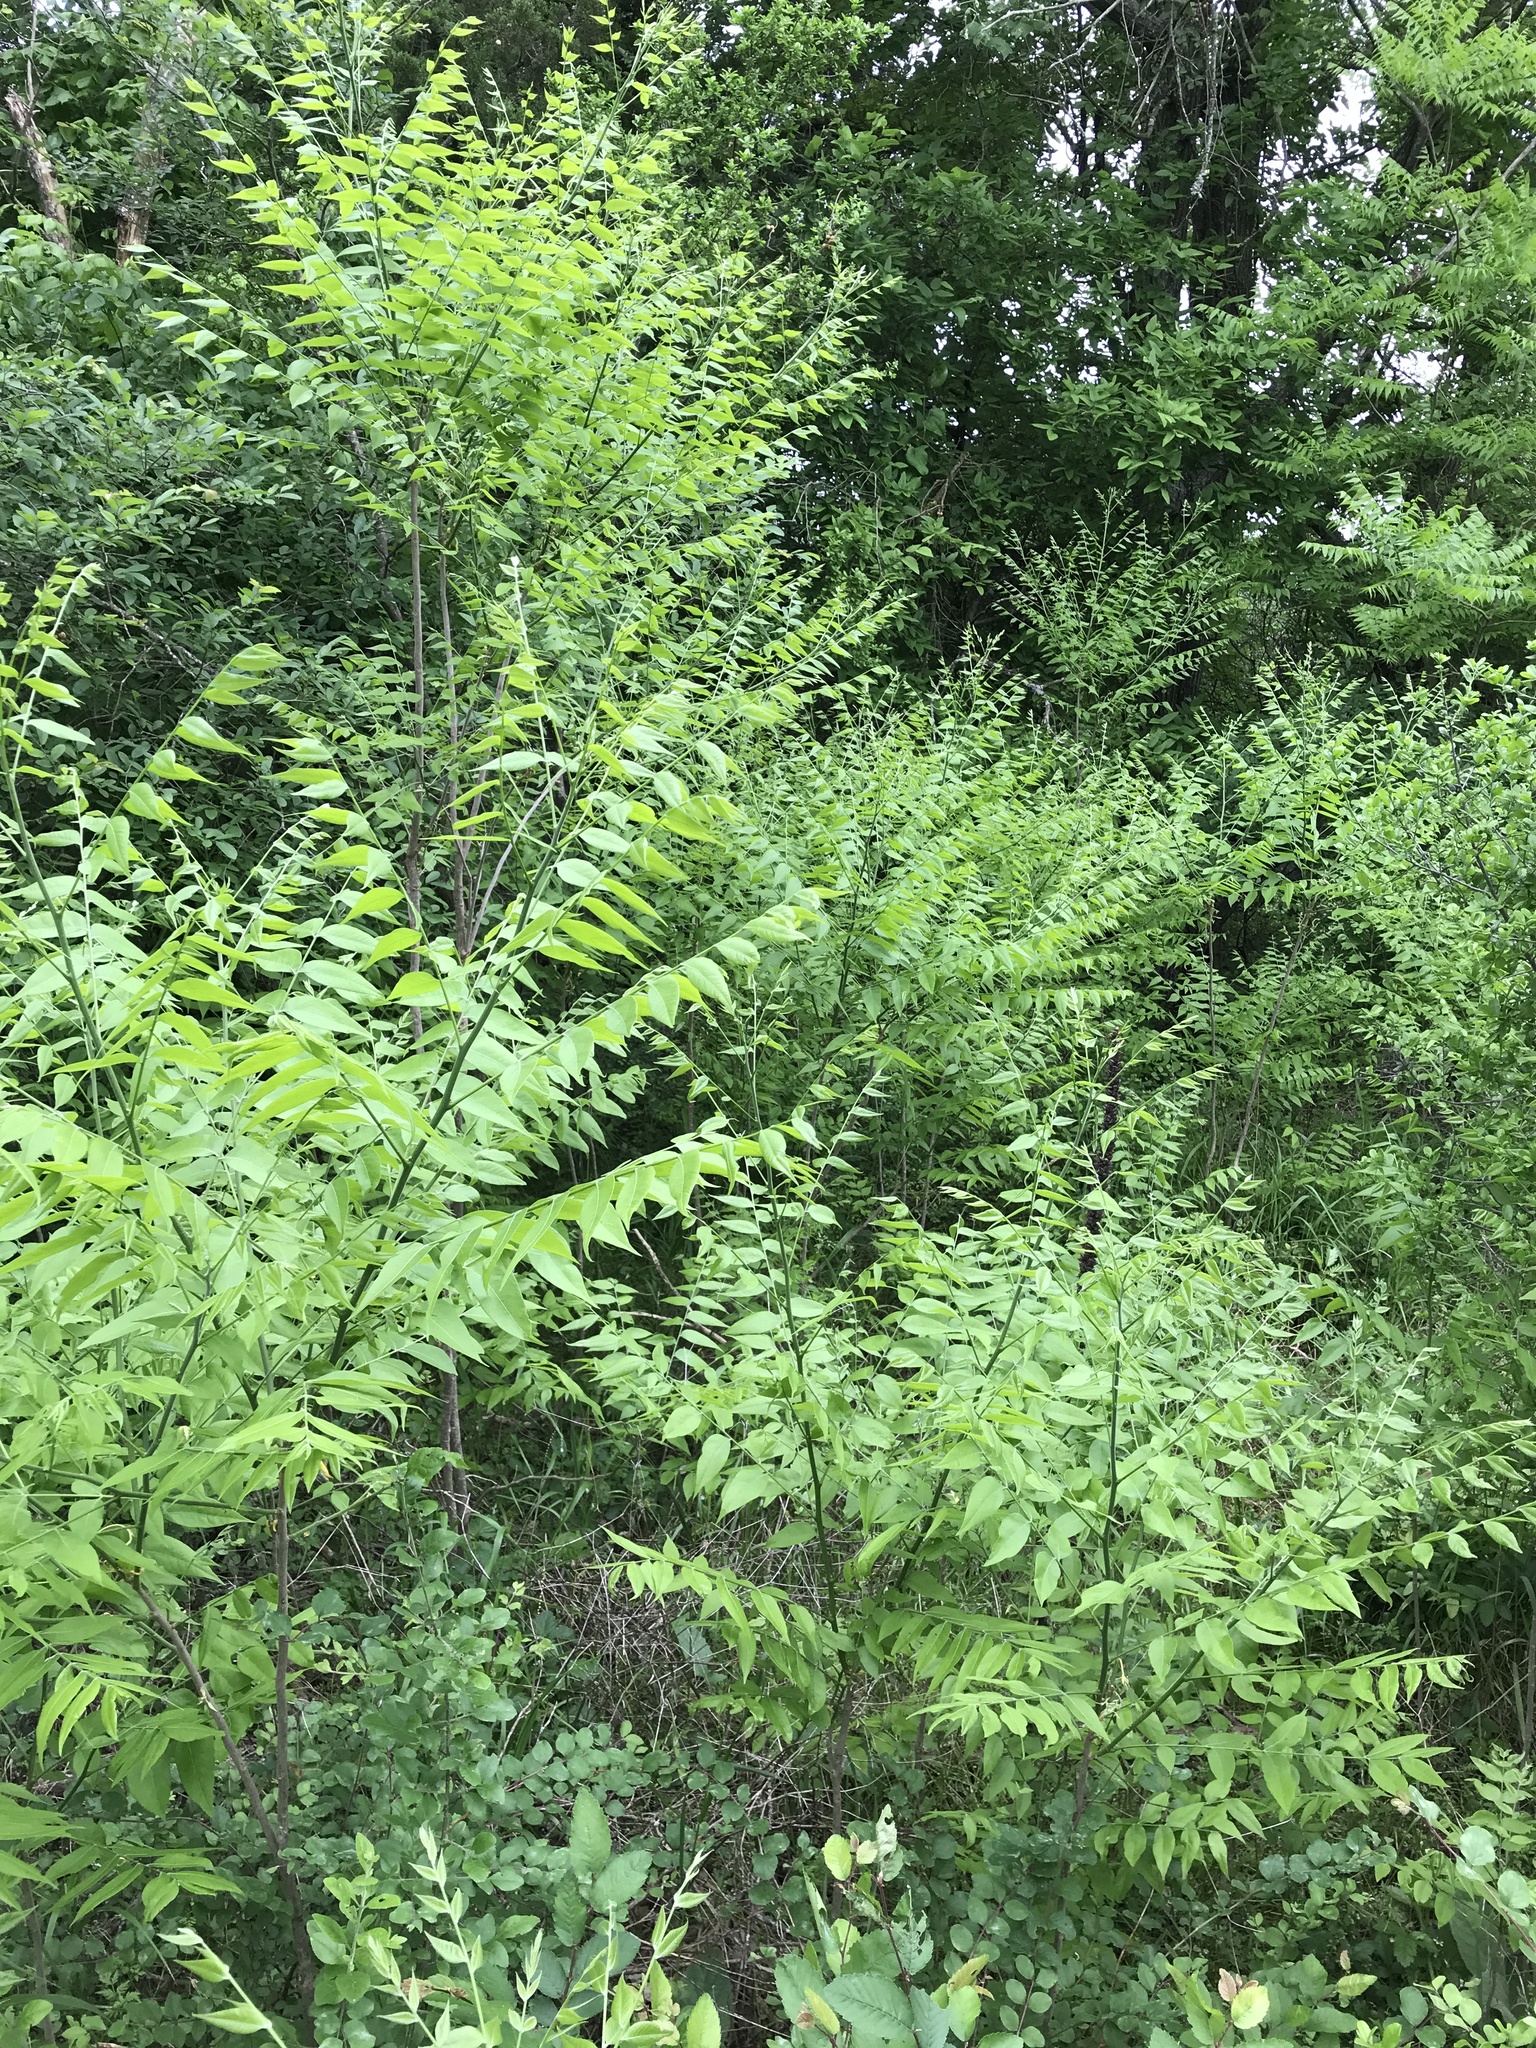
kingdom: Plantae
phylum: Tracheophyta
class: Magnoliopsida
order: Sapindales
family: Sapindaceae
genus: Sapindus
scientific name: Sapindus drummondii
